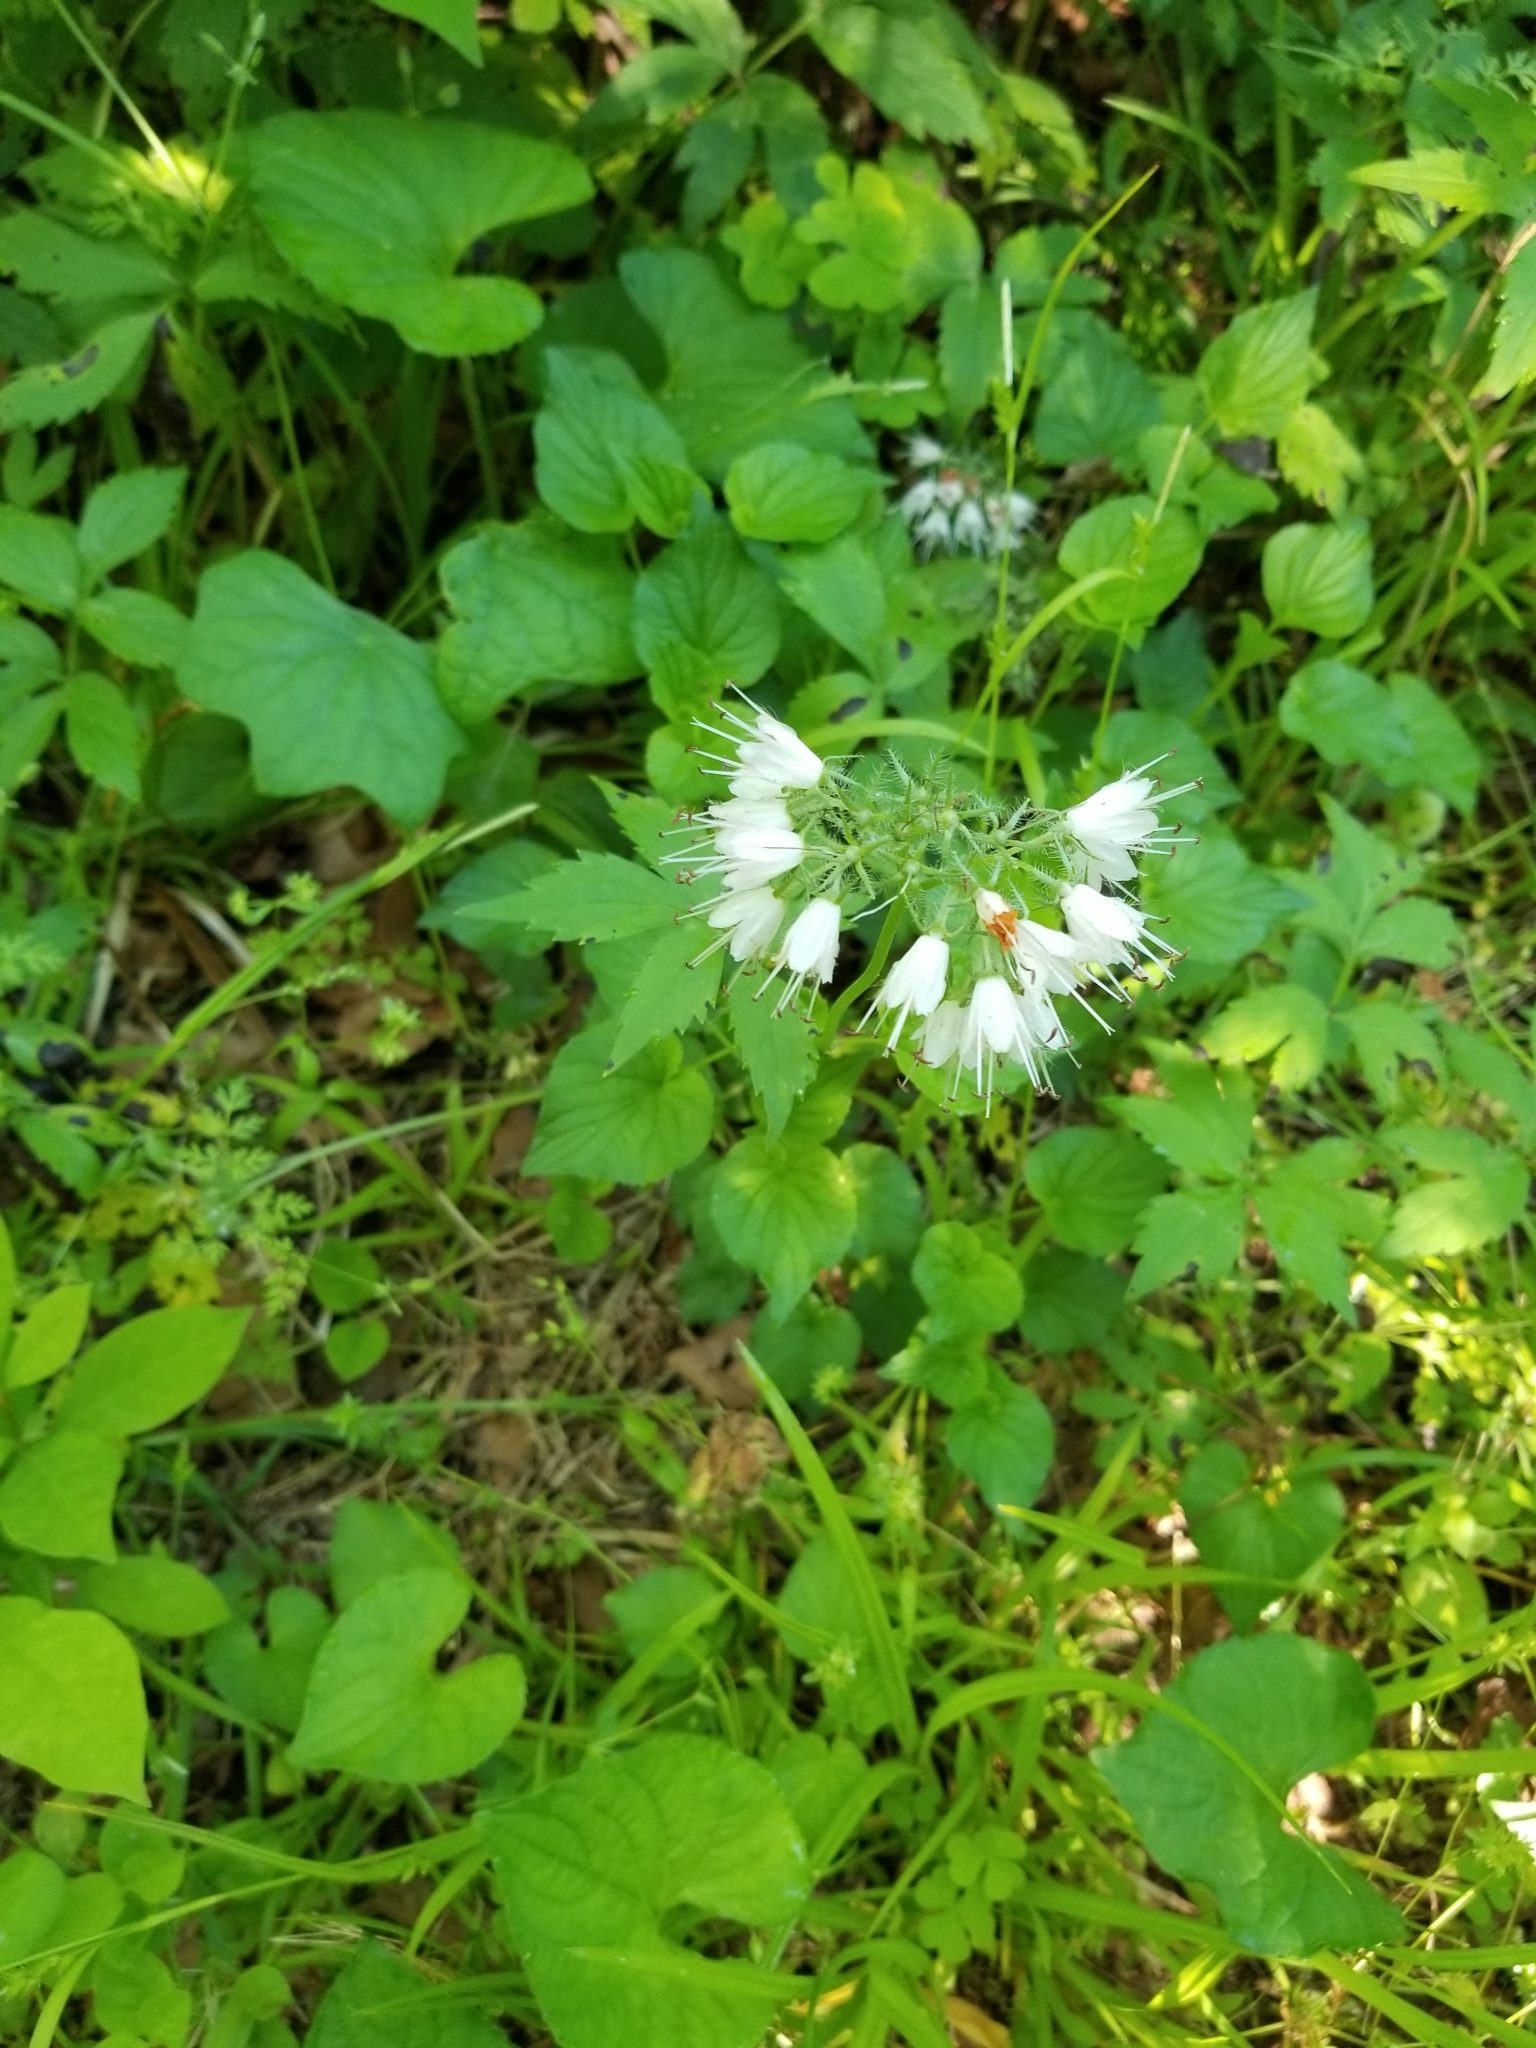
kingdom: Plantae
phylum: Tracheophyta
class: Magnoliopsida
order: Boraginales
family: Hydrophyllaceae
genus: Hydrophyllum
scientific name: Hydrophyllum virginianum
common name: Virginia waterleaf
